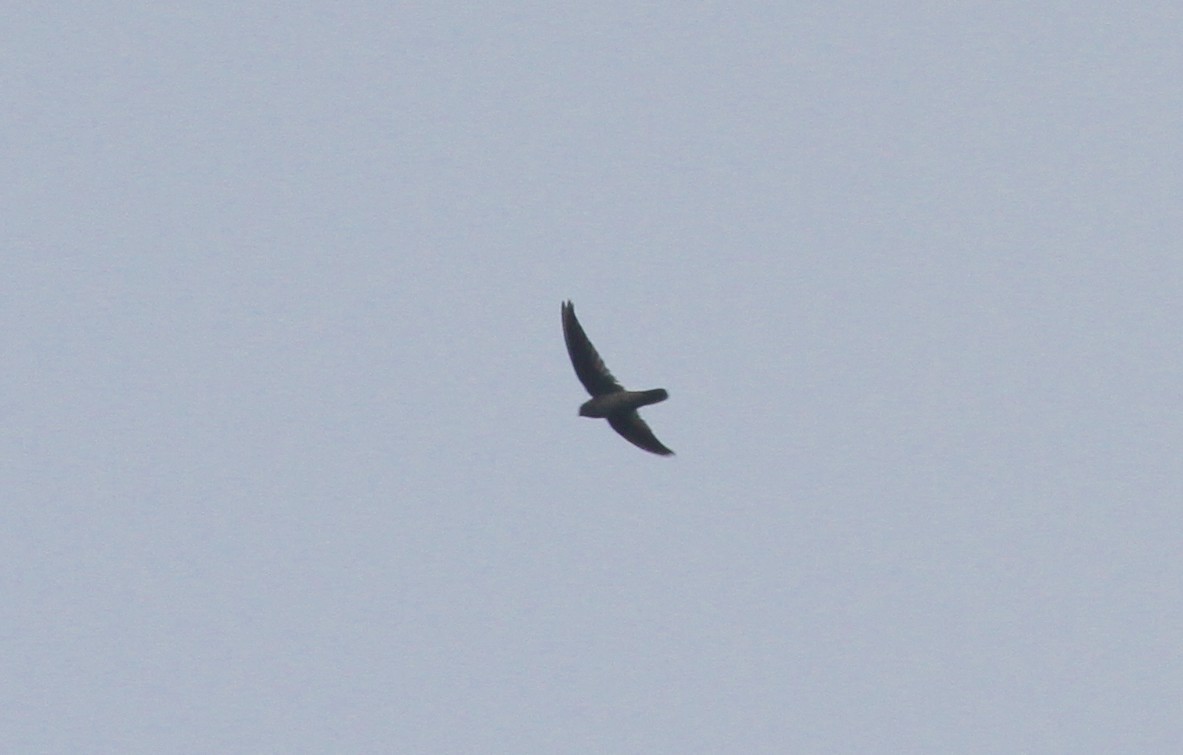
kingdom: Animalia
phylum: Chordata
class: Aves
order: Apodiformes
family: Apodidae
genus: Aerodramus
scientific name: Aerodramus unicolor
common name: Indian swiftlet
